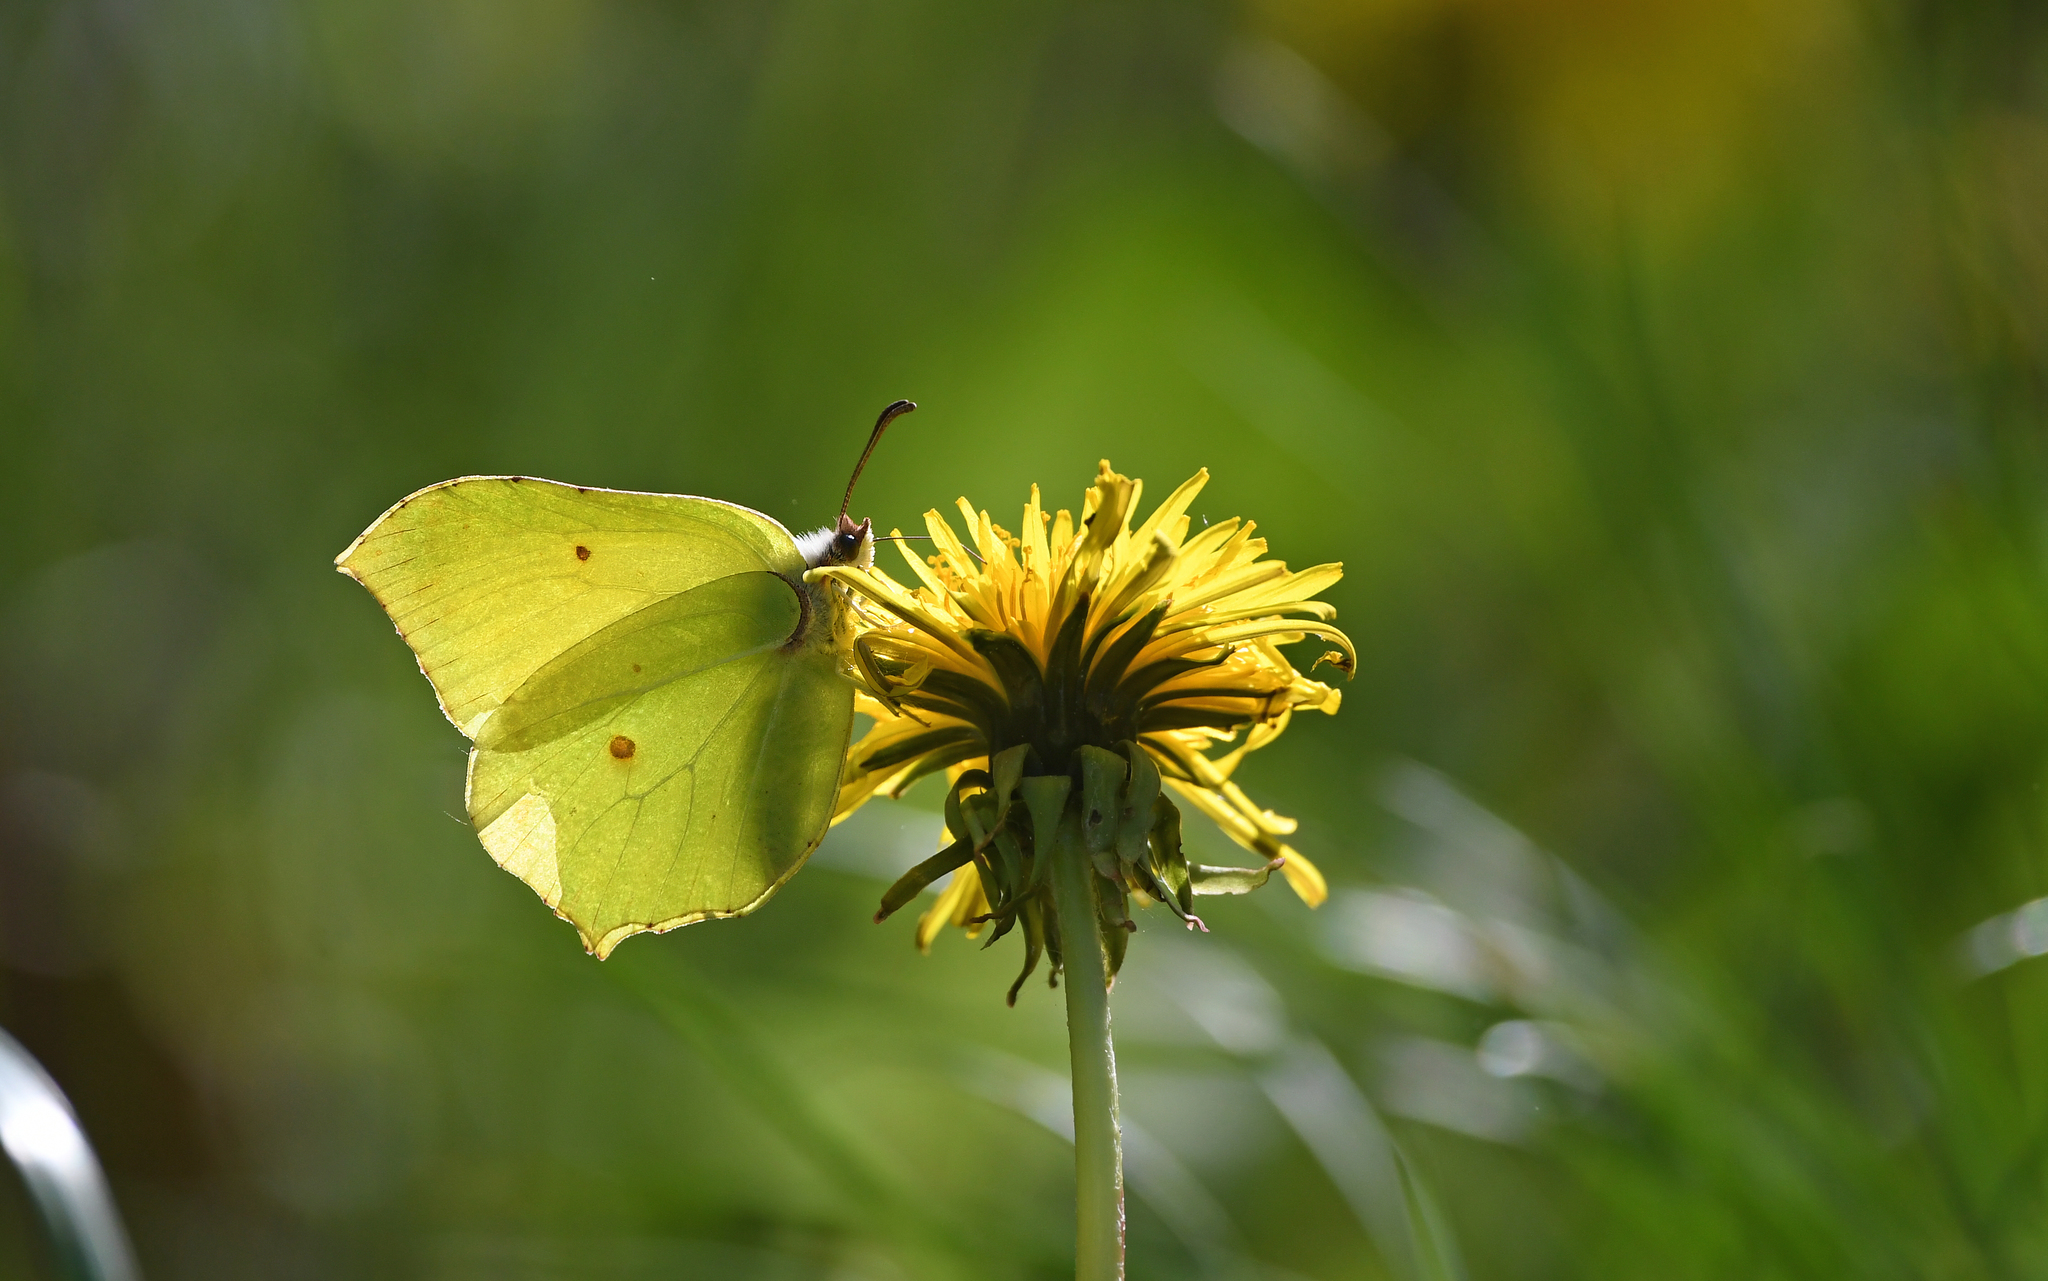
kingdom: Animalia
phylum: Arthropoda
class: Insecta
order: Lepidoptera
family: Pieridae
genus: Gonepteryx
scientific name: Gonepteryx rhamni
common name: Brimstone
